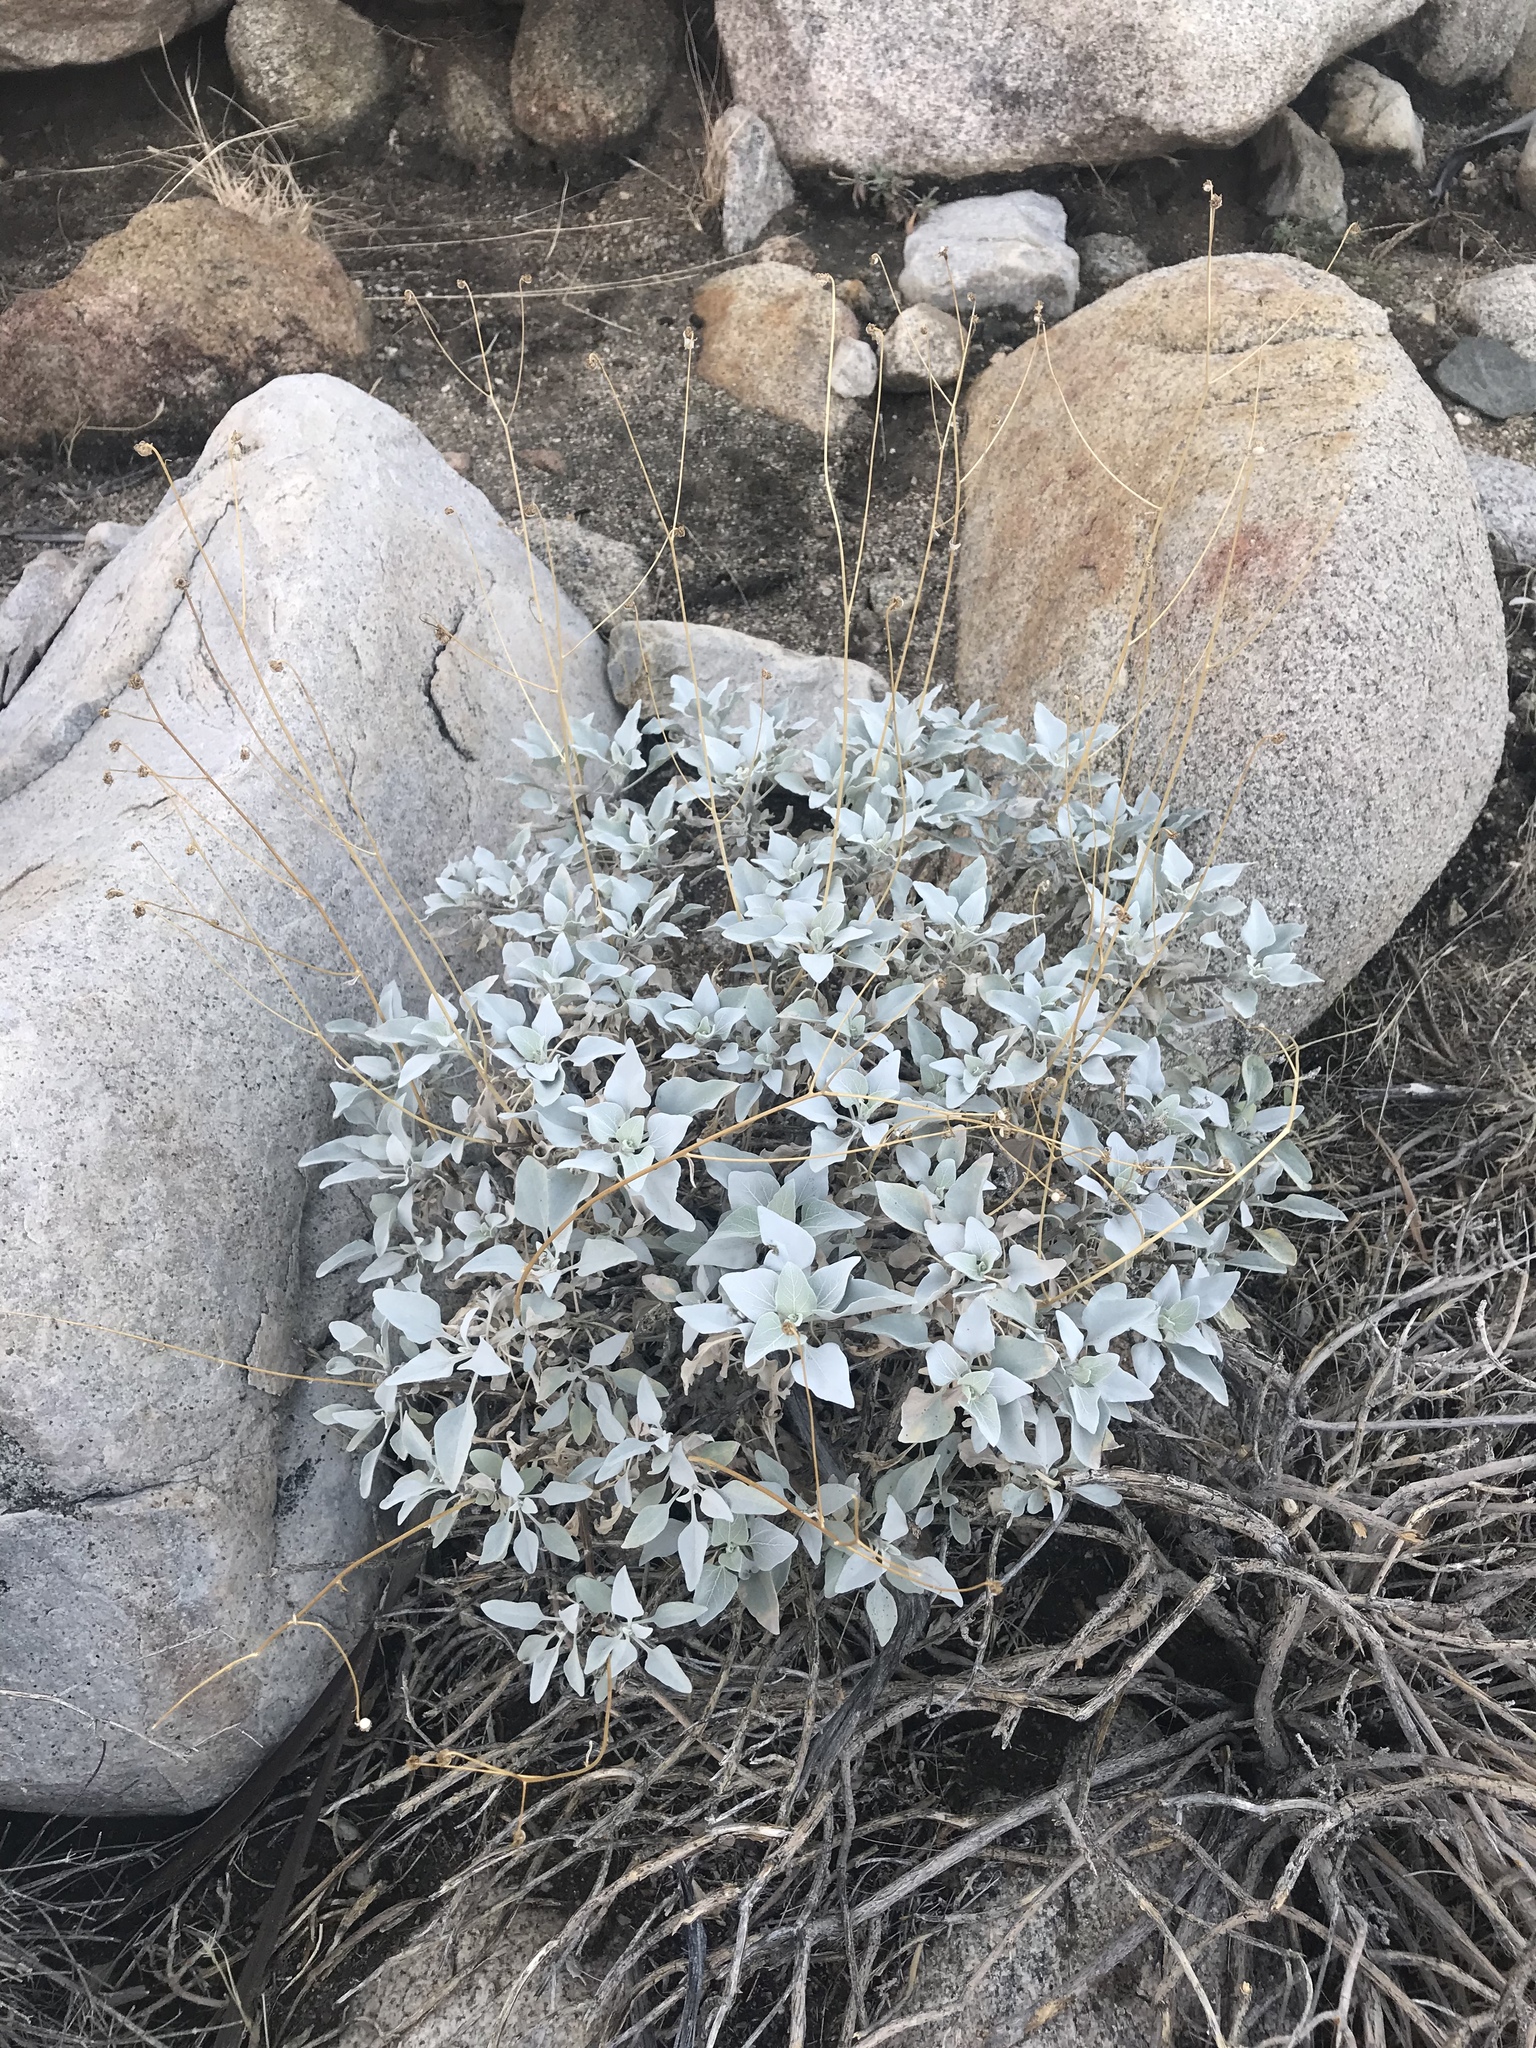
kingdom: Plantae
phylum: Tracheophyta
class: Magnoliopsida
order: Asterales
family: Asteraceae
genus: Encelia
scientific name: Encelia farinosa
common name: Brittlebush
